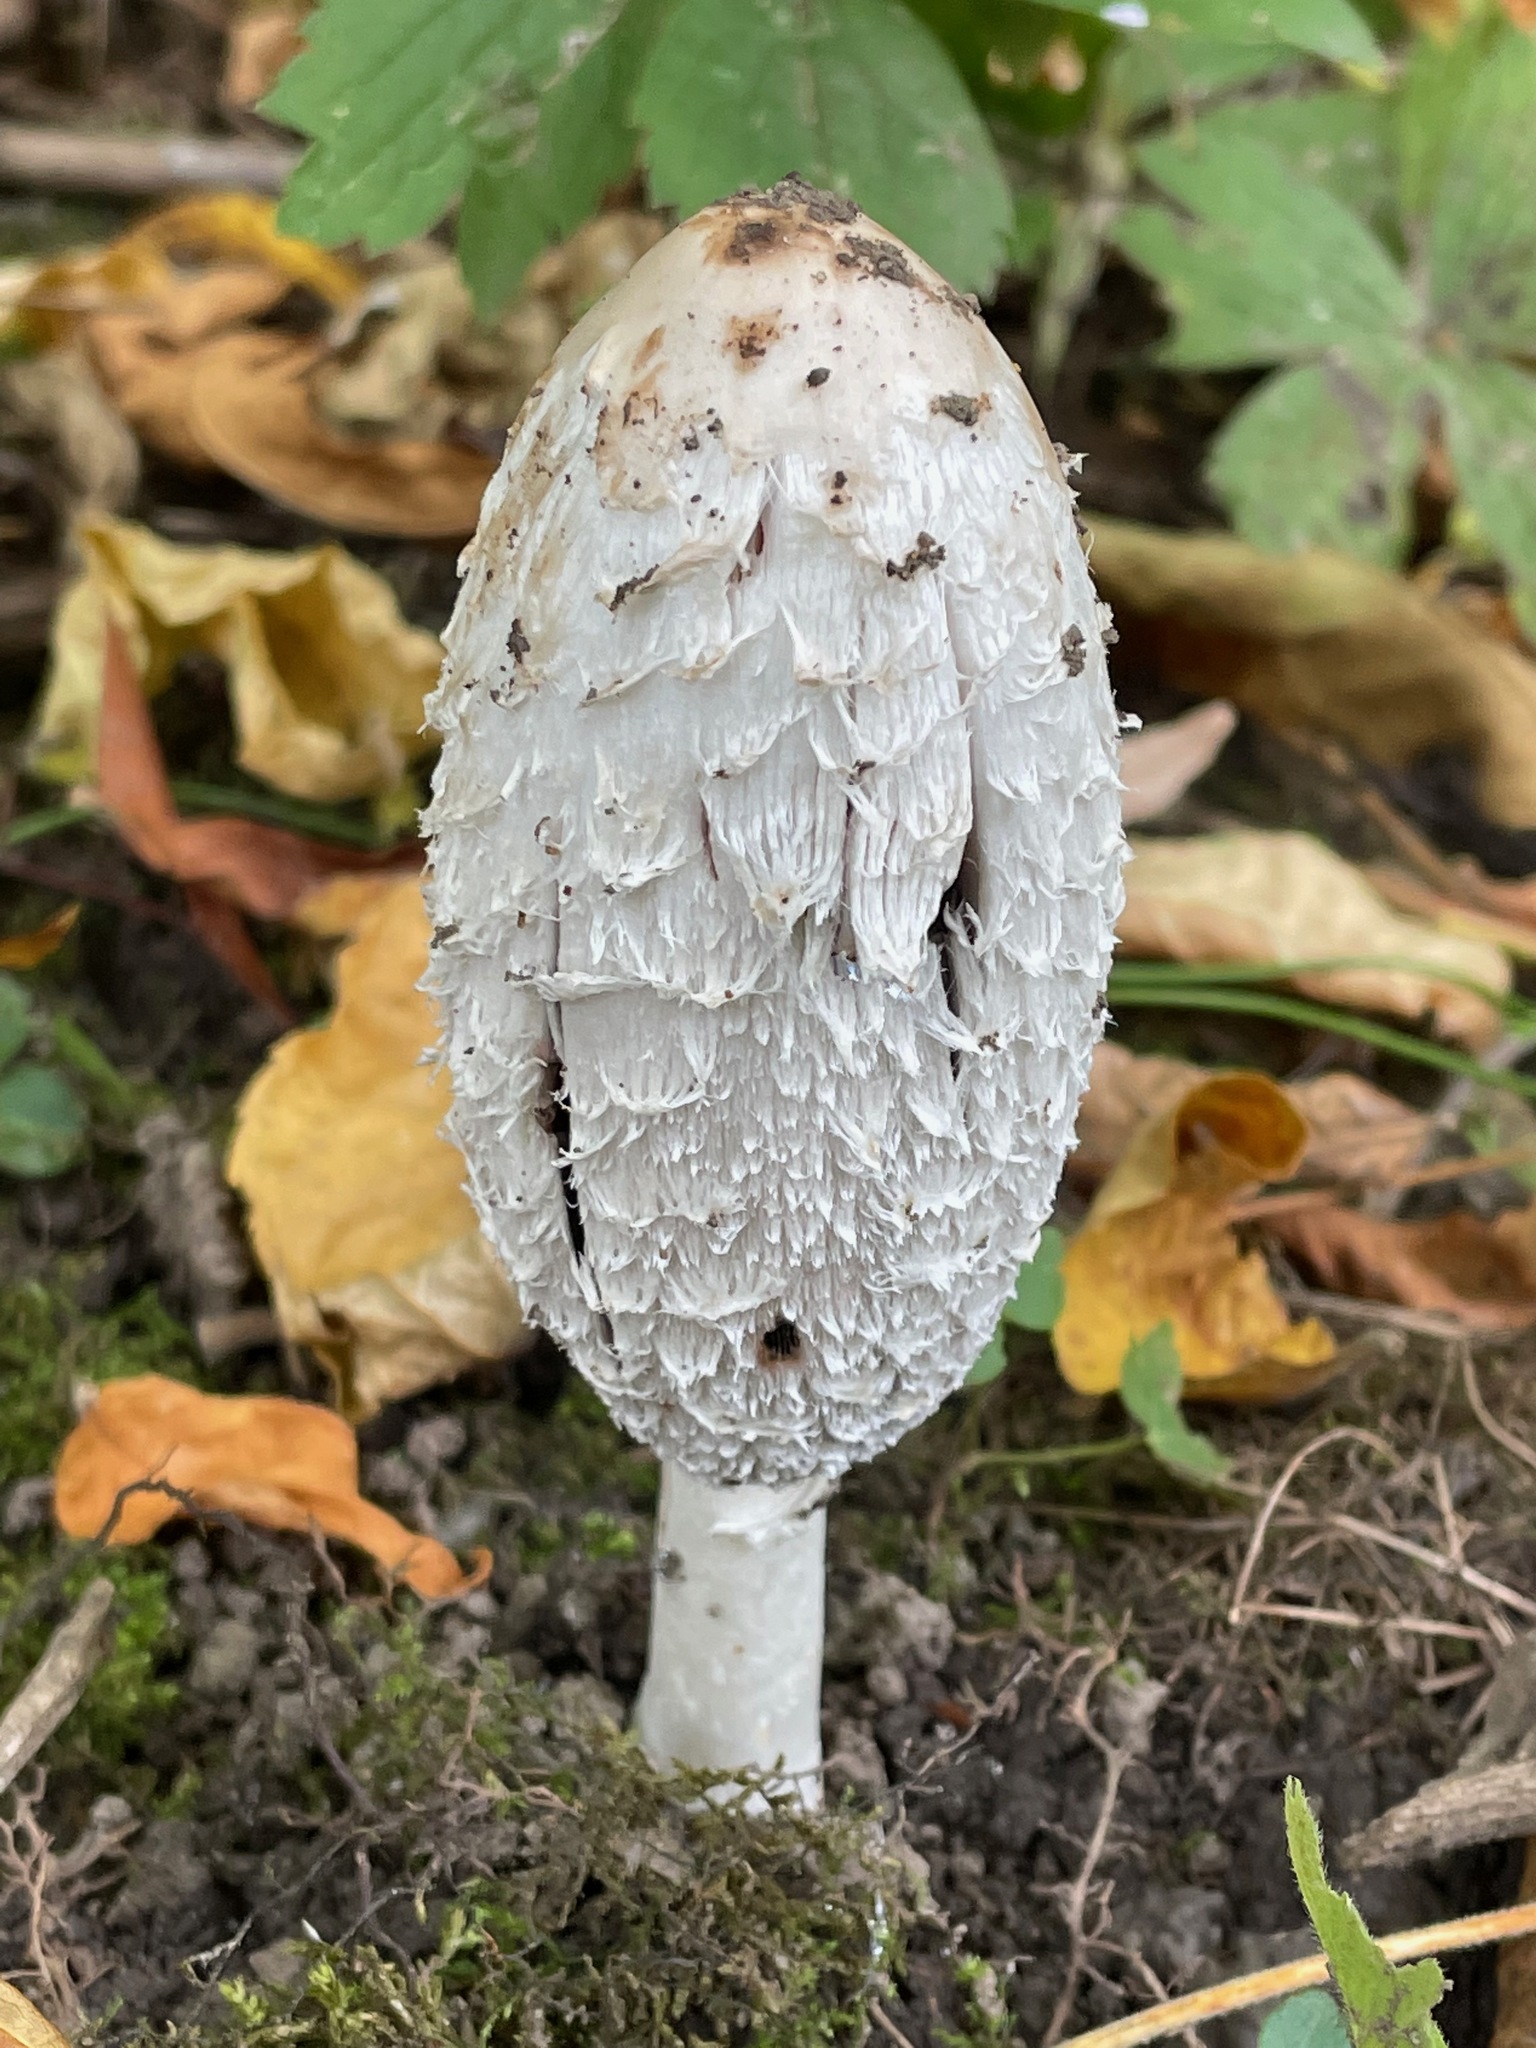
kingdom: Fungi
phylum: Basidiomycota
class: Agaricomycetes
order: Agaricales
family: Agaricaceae
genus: Coprinus
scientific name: Coprinus comatus
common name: Lawyer's wig
